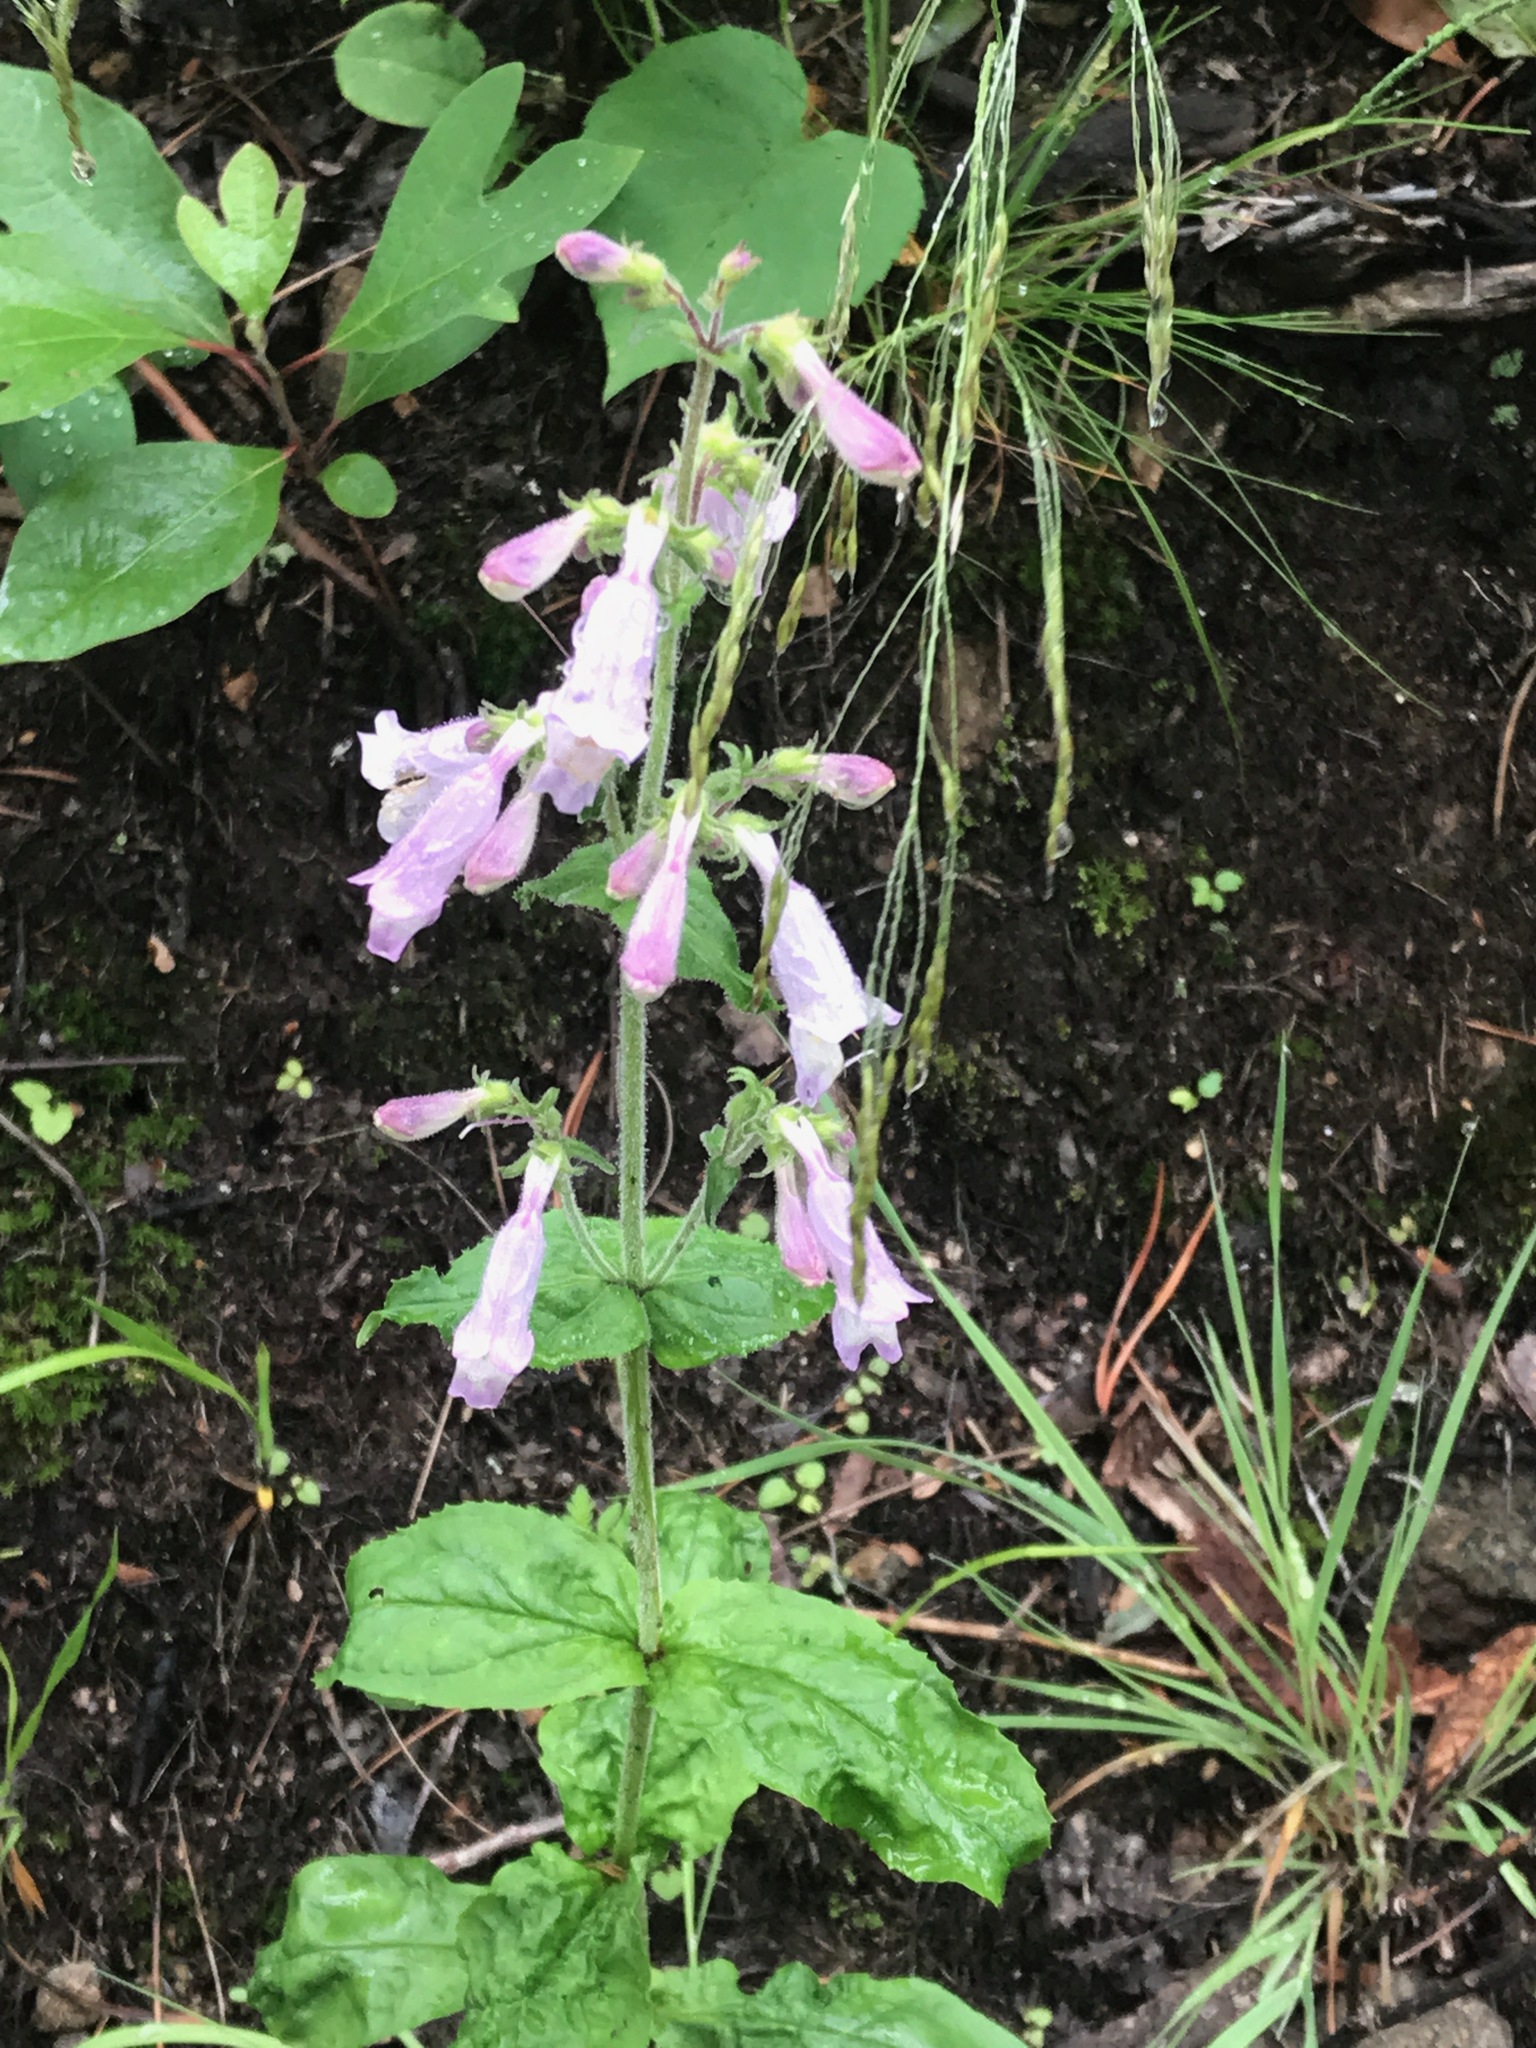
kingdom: Plantae
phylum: Tracheophyta
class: Magnoliopsida
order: Lamiales
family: Plantaginaceae
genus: Penstemon
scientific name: Penstemon canescens
